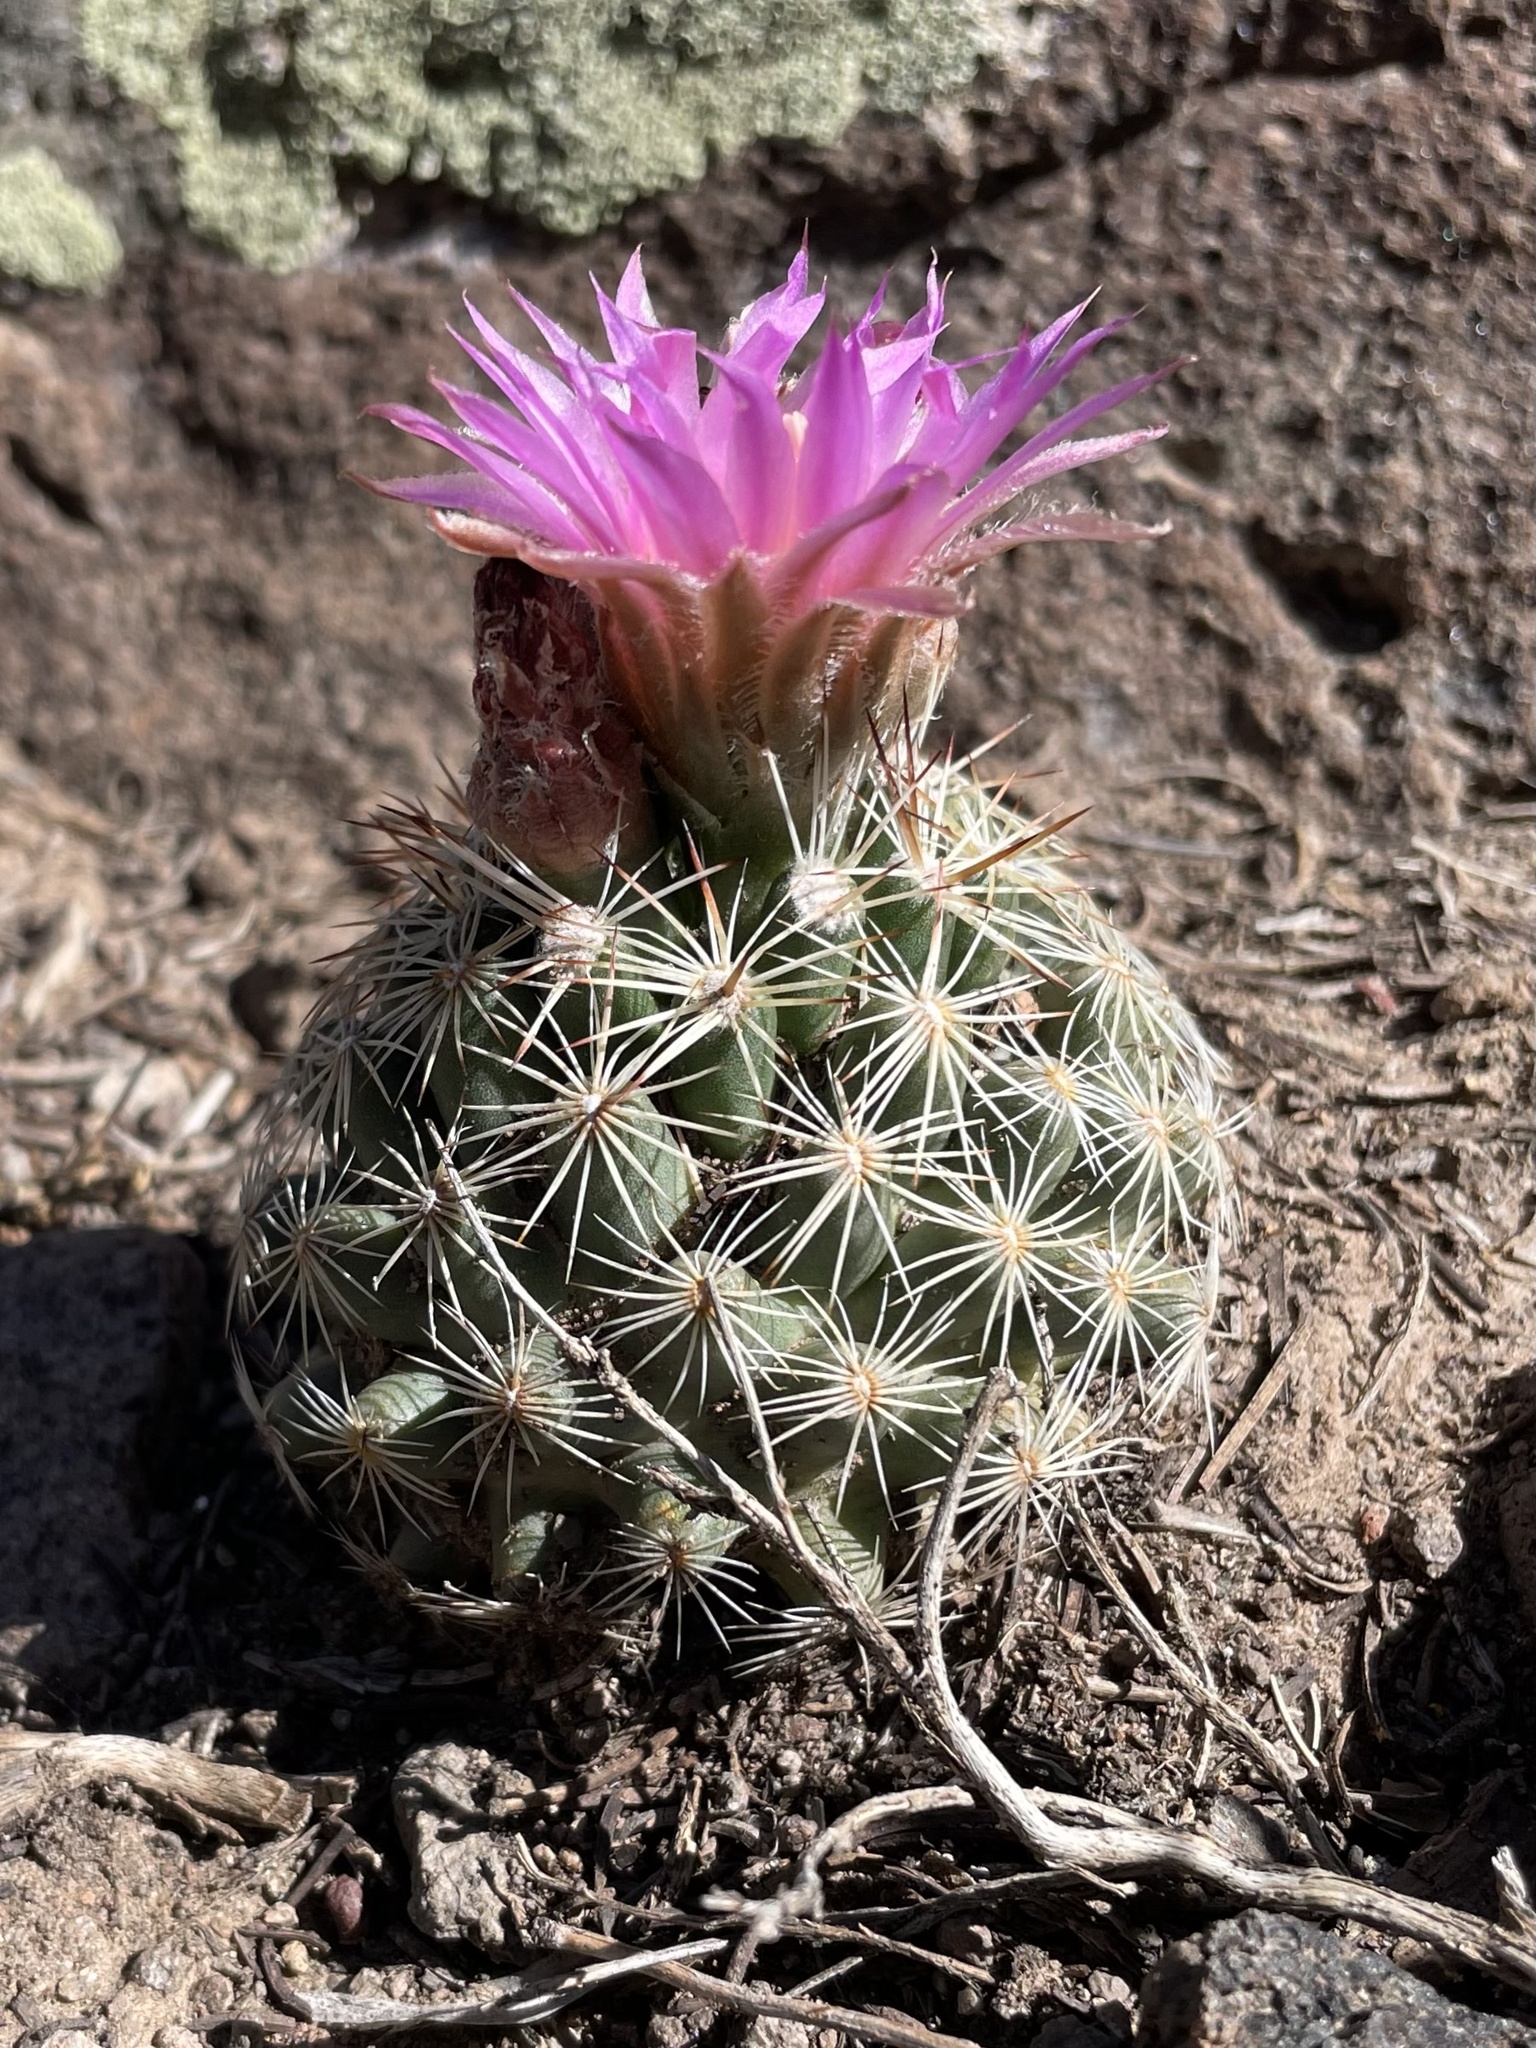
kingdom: Plantae
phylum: Tracheophyta
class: Magnoliopsida
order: Caryophyllales
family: Cactaceae
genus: Pelecyphora
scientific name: Pelecyphora vivipara
